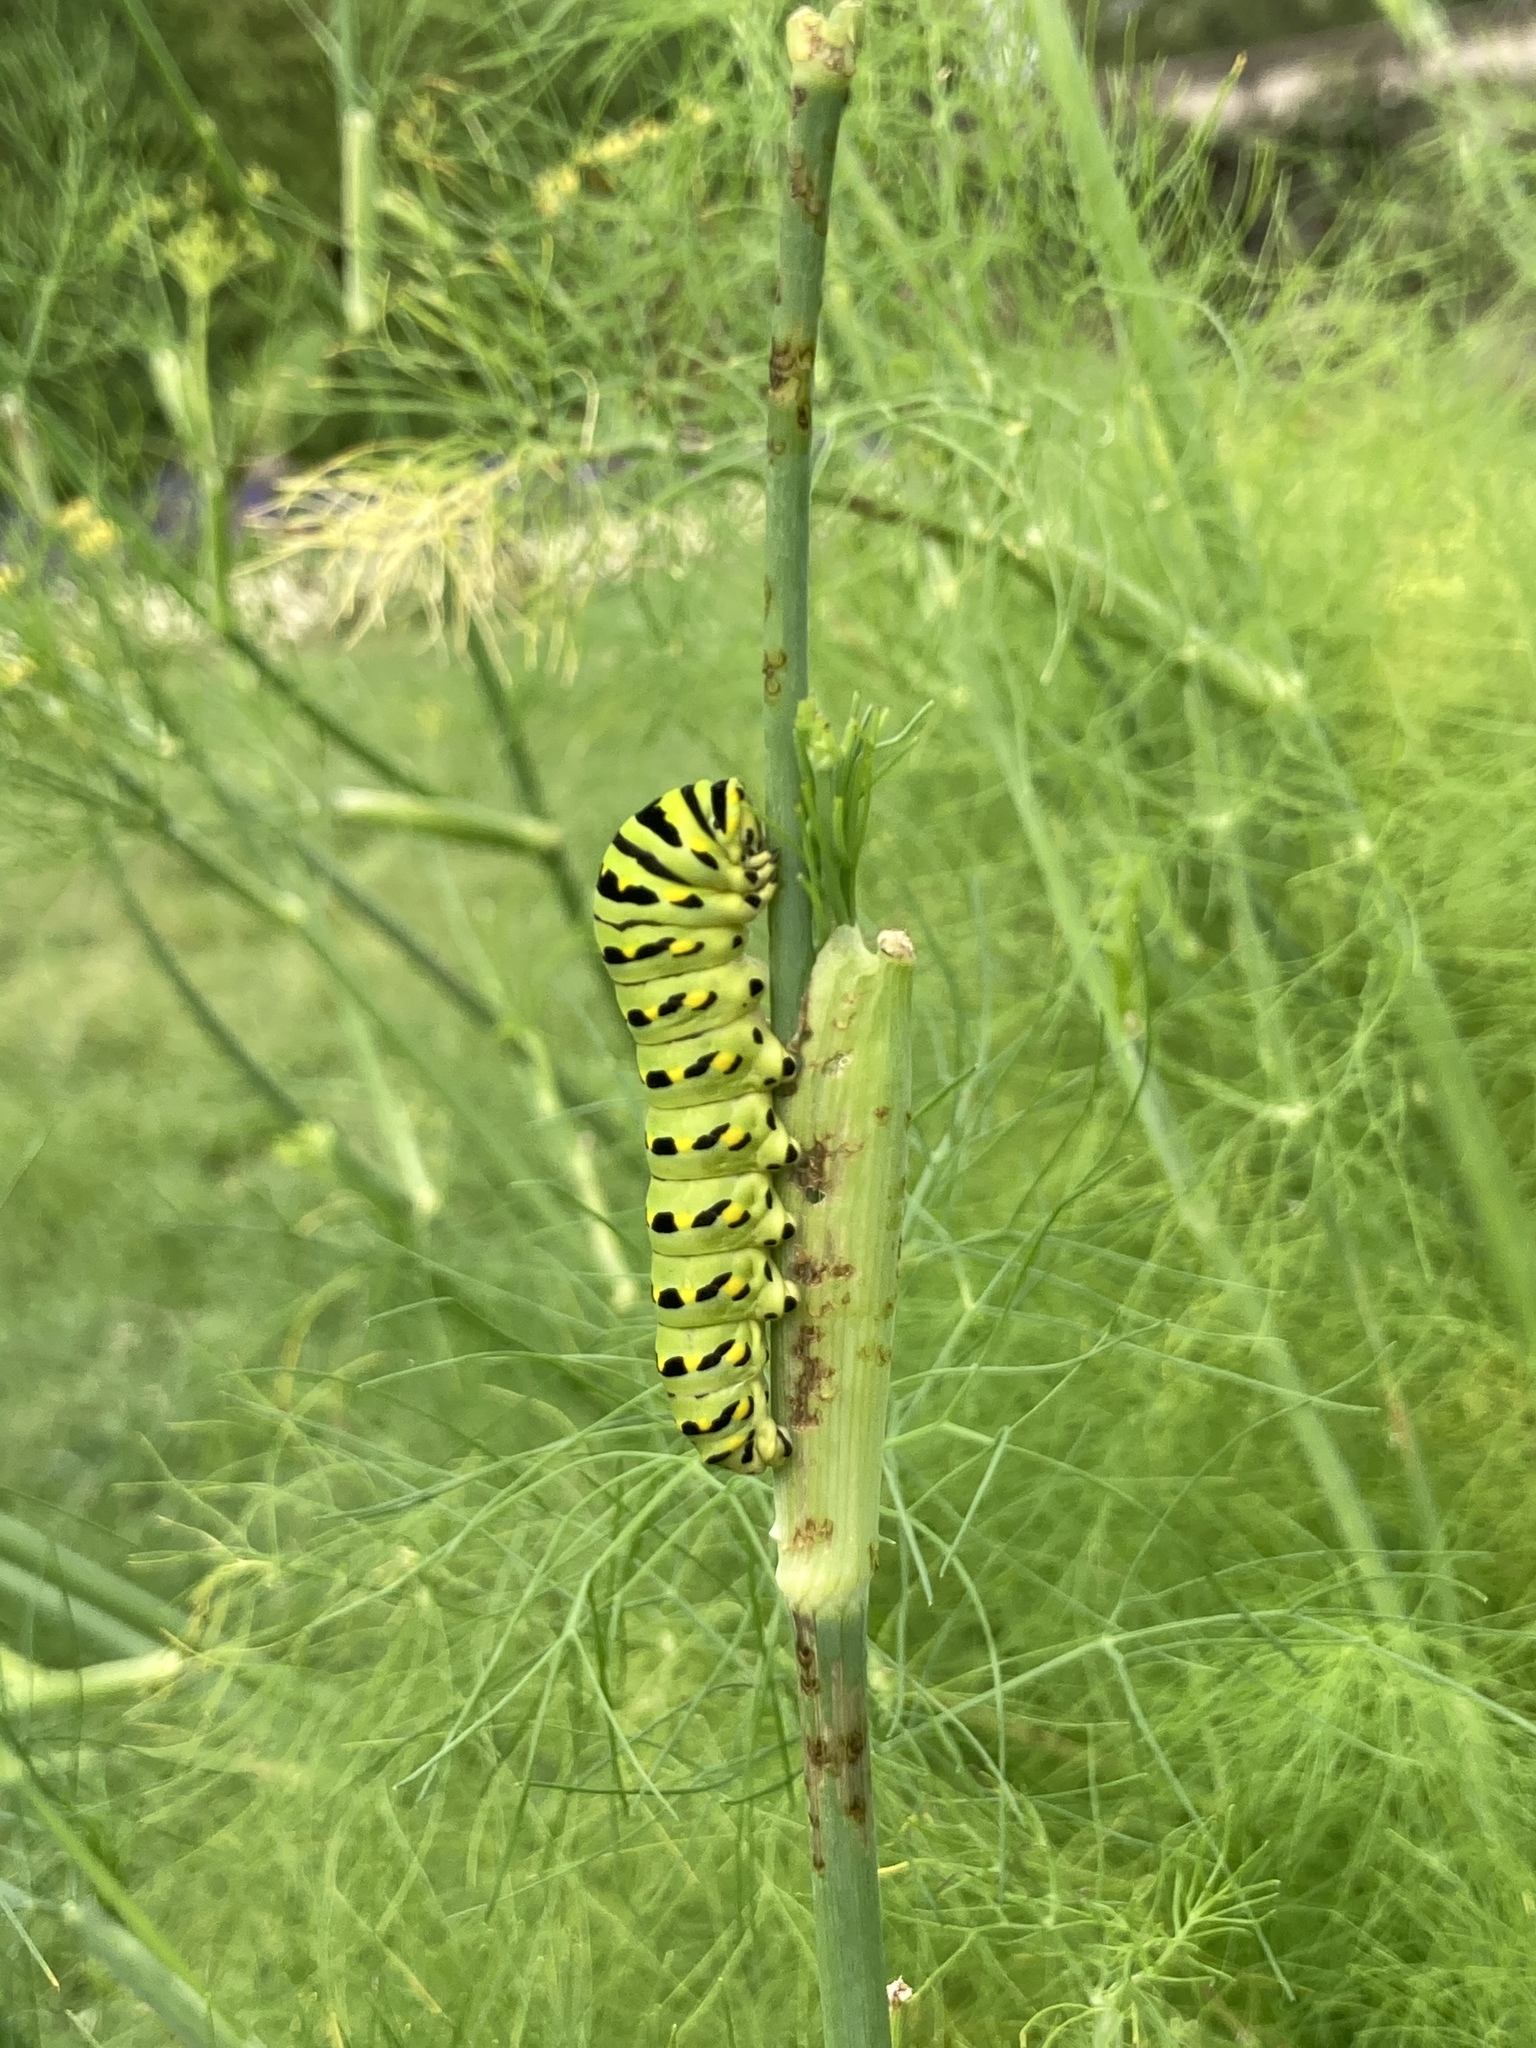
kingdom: Animalia
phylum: Arthropoda
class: Insecta
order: Lepidoptera
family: Papilionidae
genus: Papilio
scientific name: Papilio polyxenes
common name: Black swallowtail
